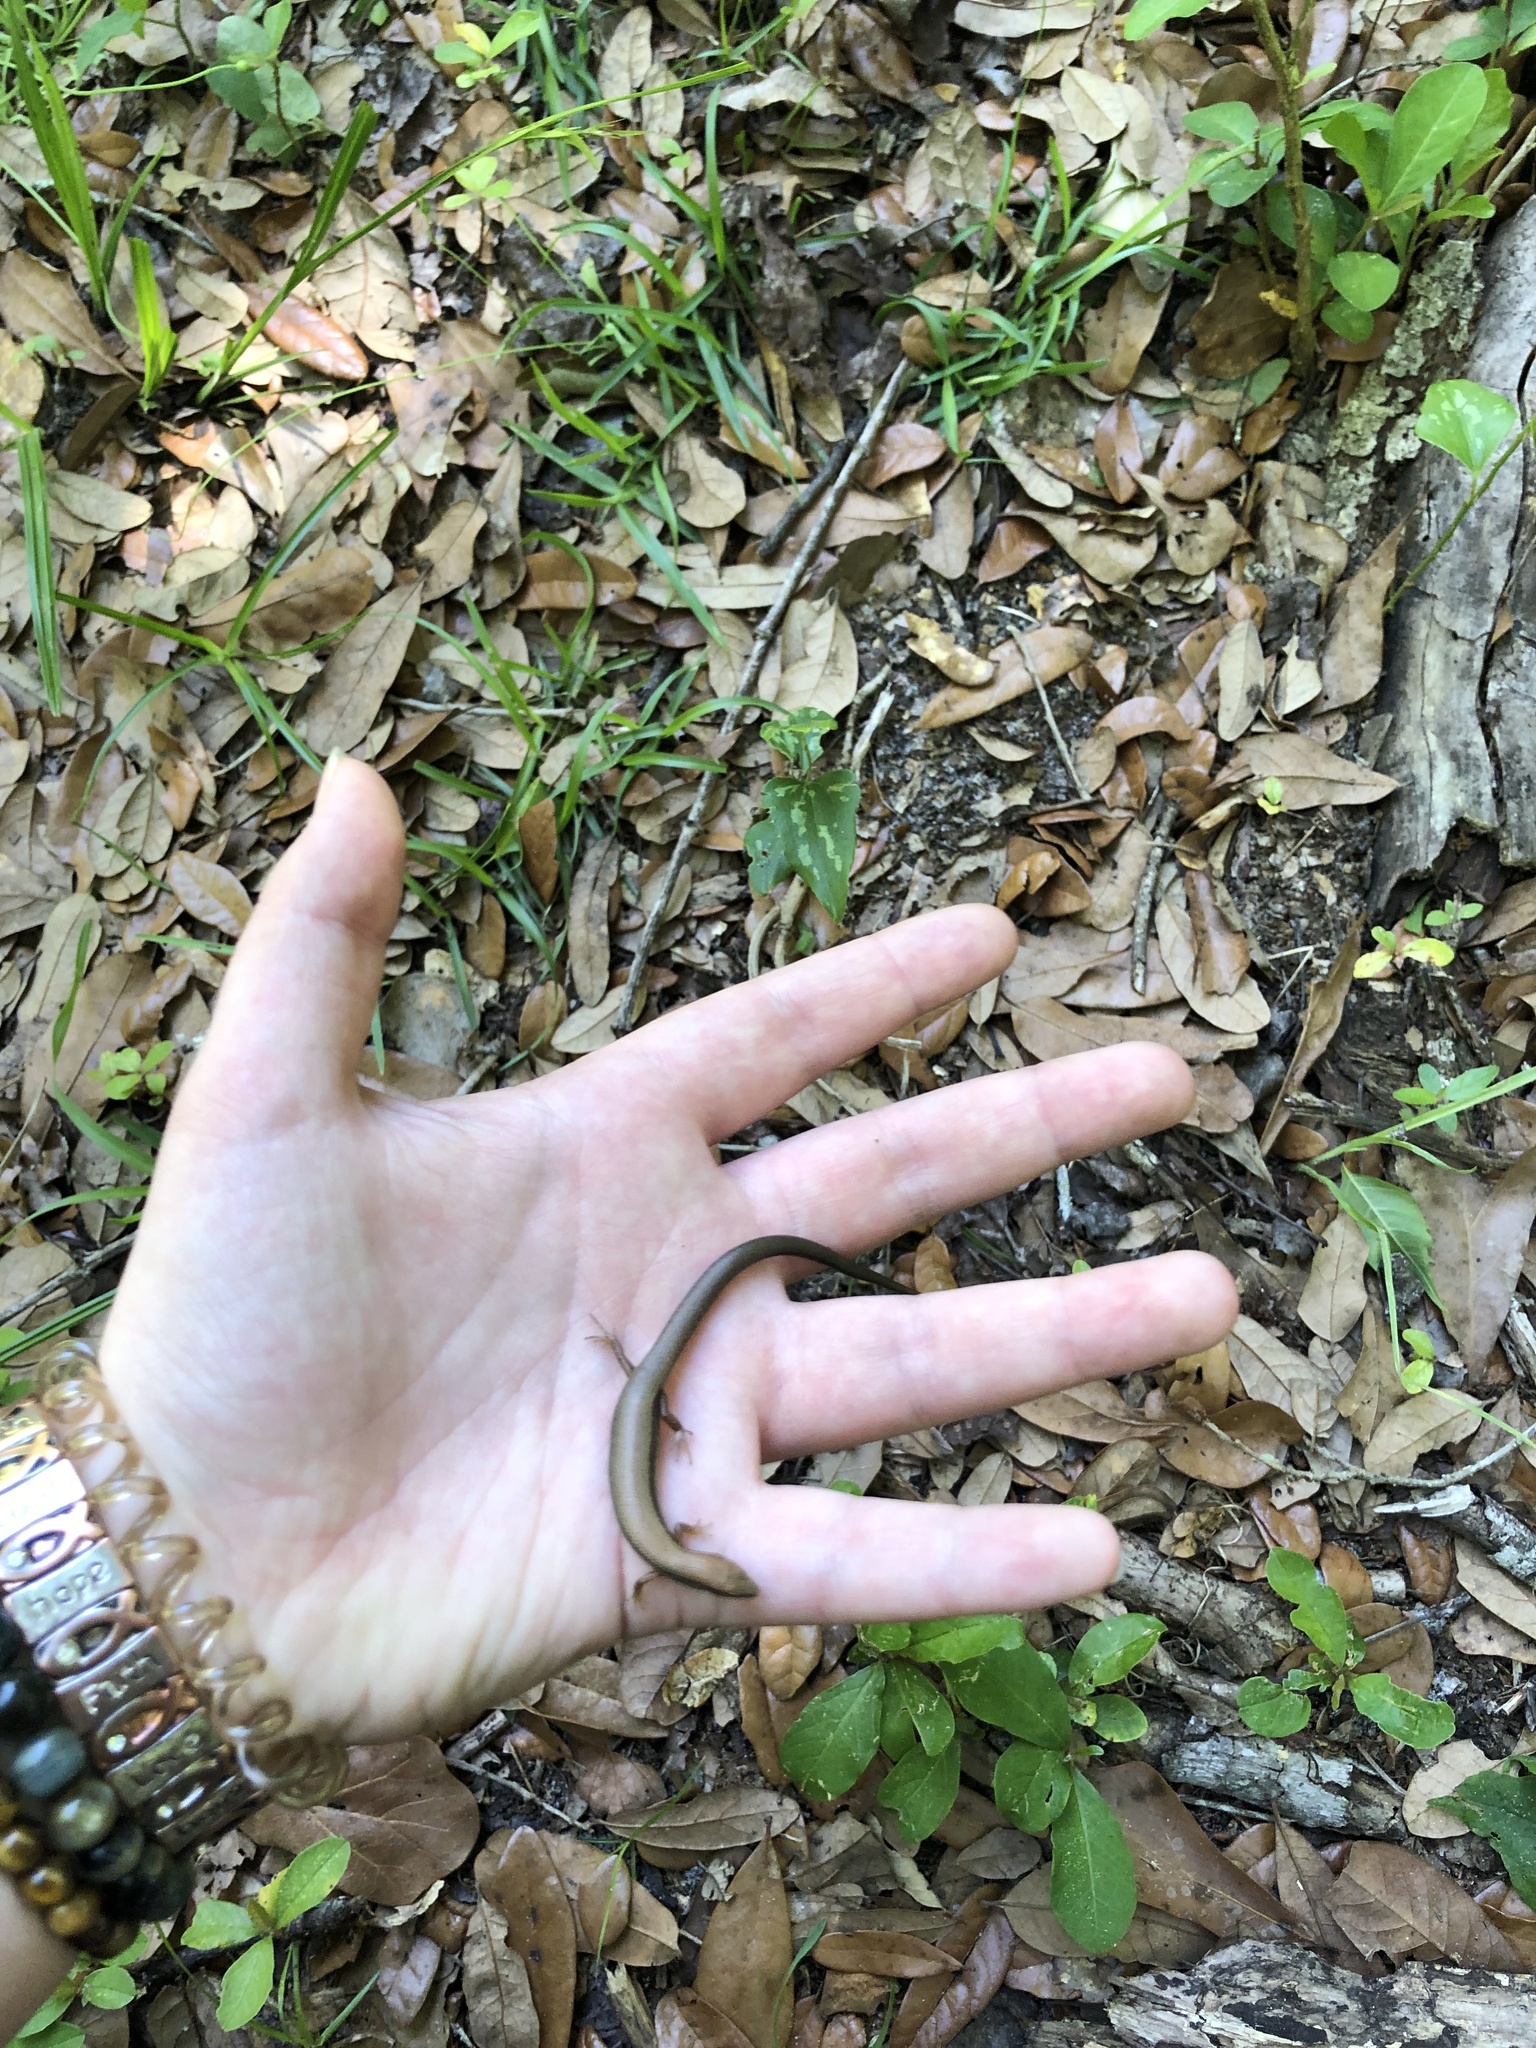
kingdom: Animalia
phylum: Chordata
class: Squamata
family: Scincidae
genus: Scincella
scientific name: Scincella lateralis
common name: Ground skink
